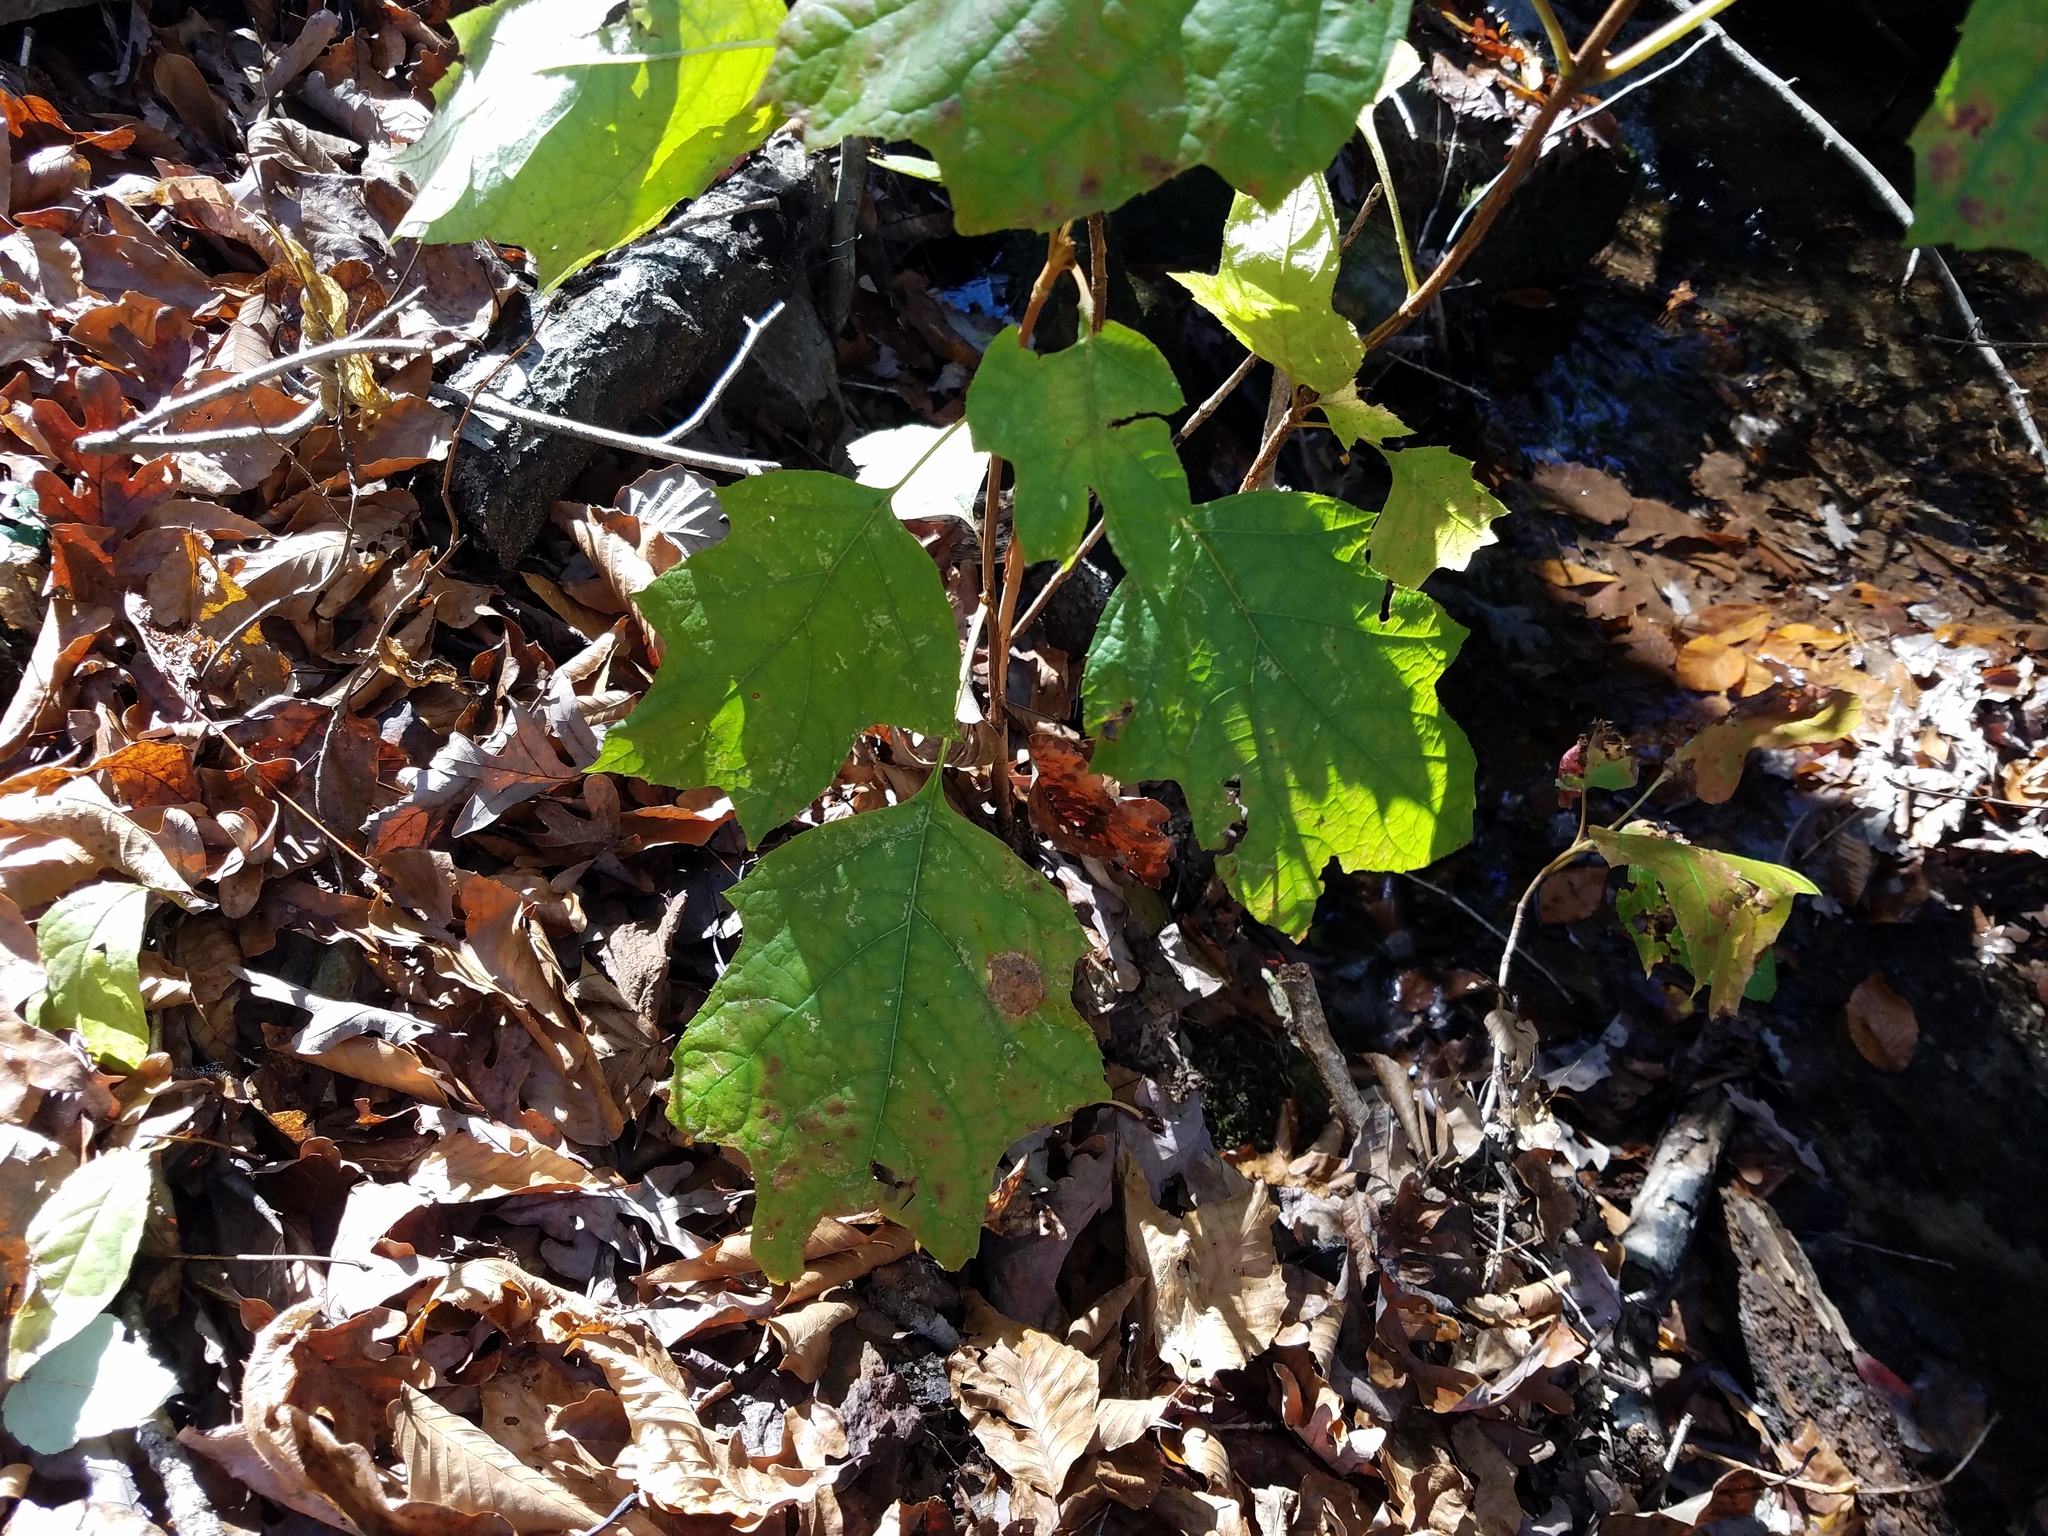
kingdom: Plantae
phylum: Tracheophyta
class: Magnoliopsida
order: Cornales
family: Hydrangeaceae
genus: Hydrangea
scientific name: Hydrangea quercifolia
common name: Oak-leaf hydrangea
